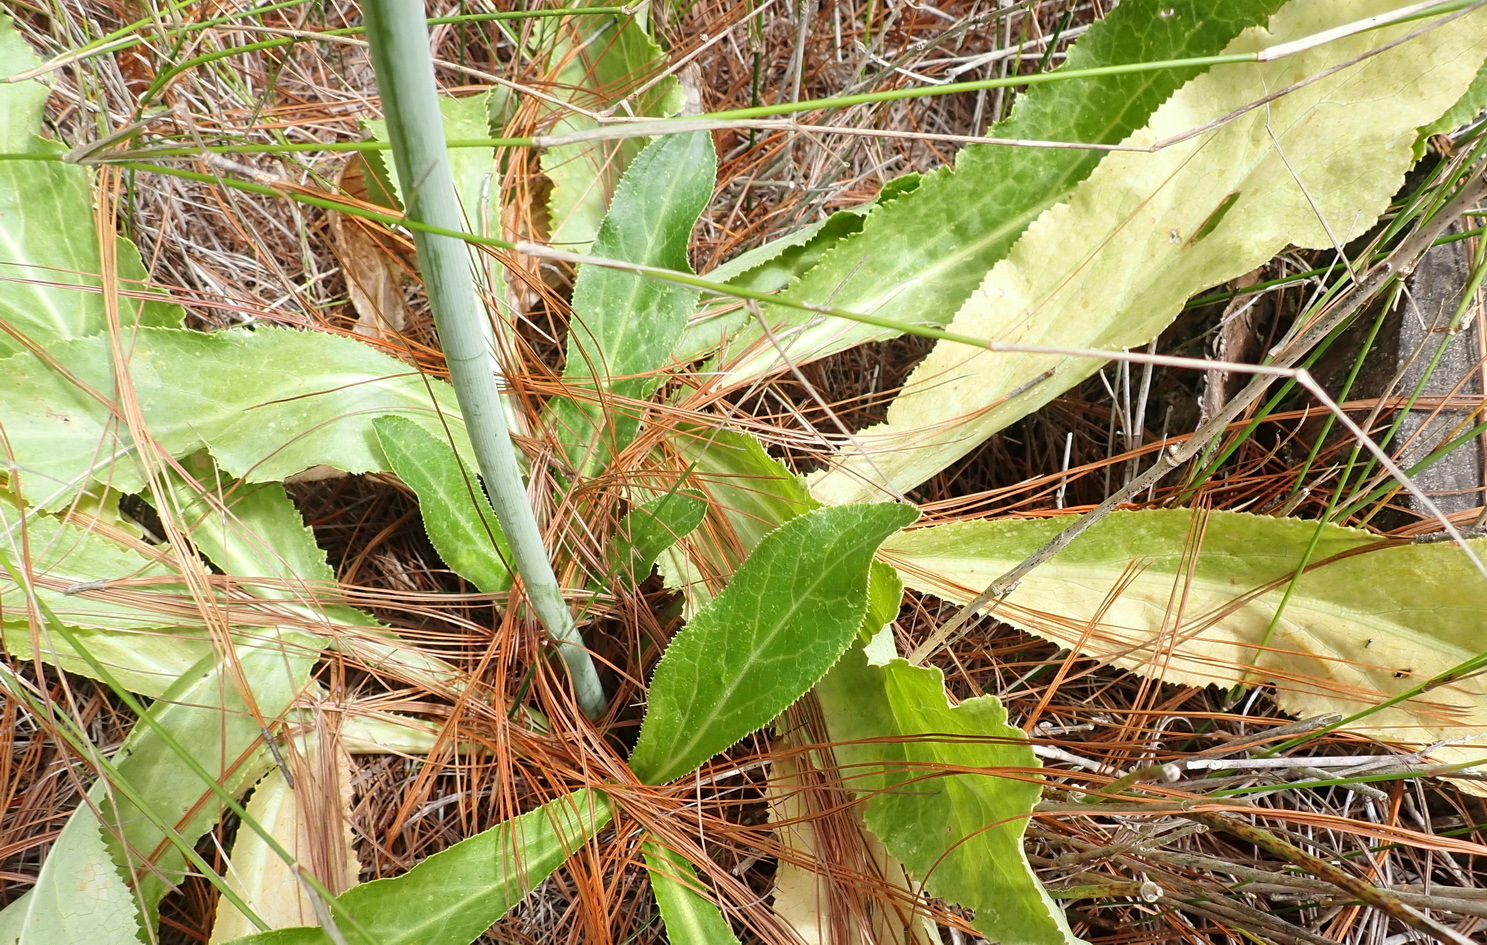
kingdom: Plantae
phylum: Tracheophyta
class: Magnoliopsida
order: Apiales
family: Apiaceae
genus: Lichtensteinia
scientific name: Lichtensteinia trifida
